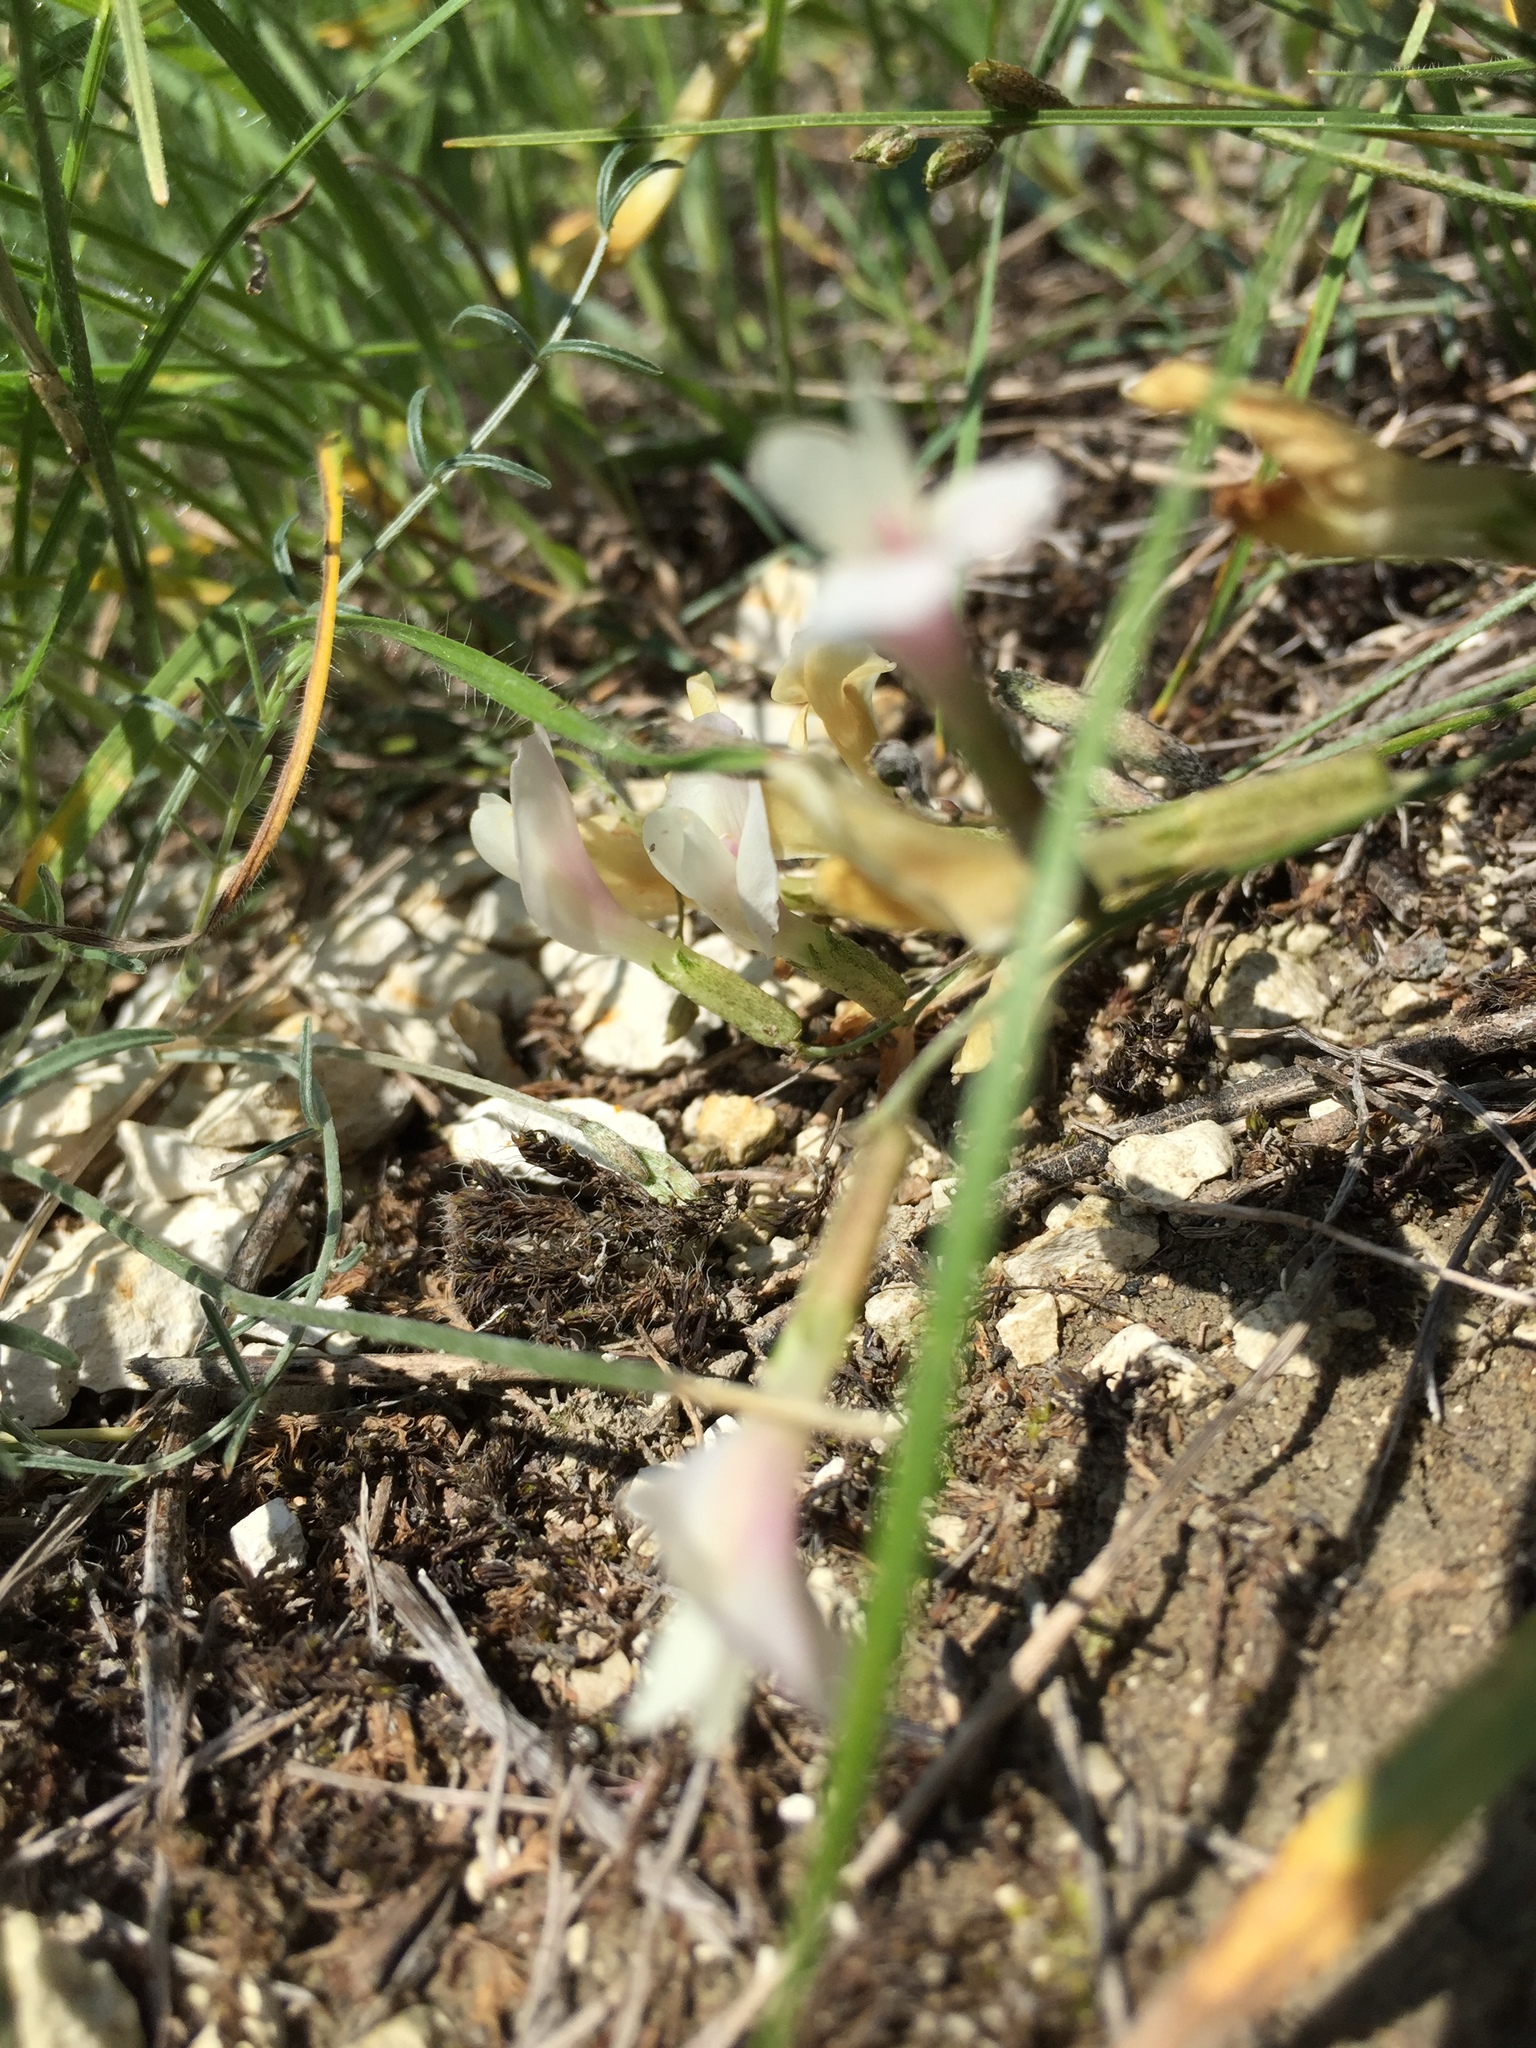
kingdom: Plantae
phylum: Tracheophyta
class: Magnoliopsida
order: Fabales
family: Fabaceae
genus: Astragalus
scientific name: Astragalus ucrainicus
